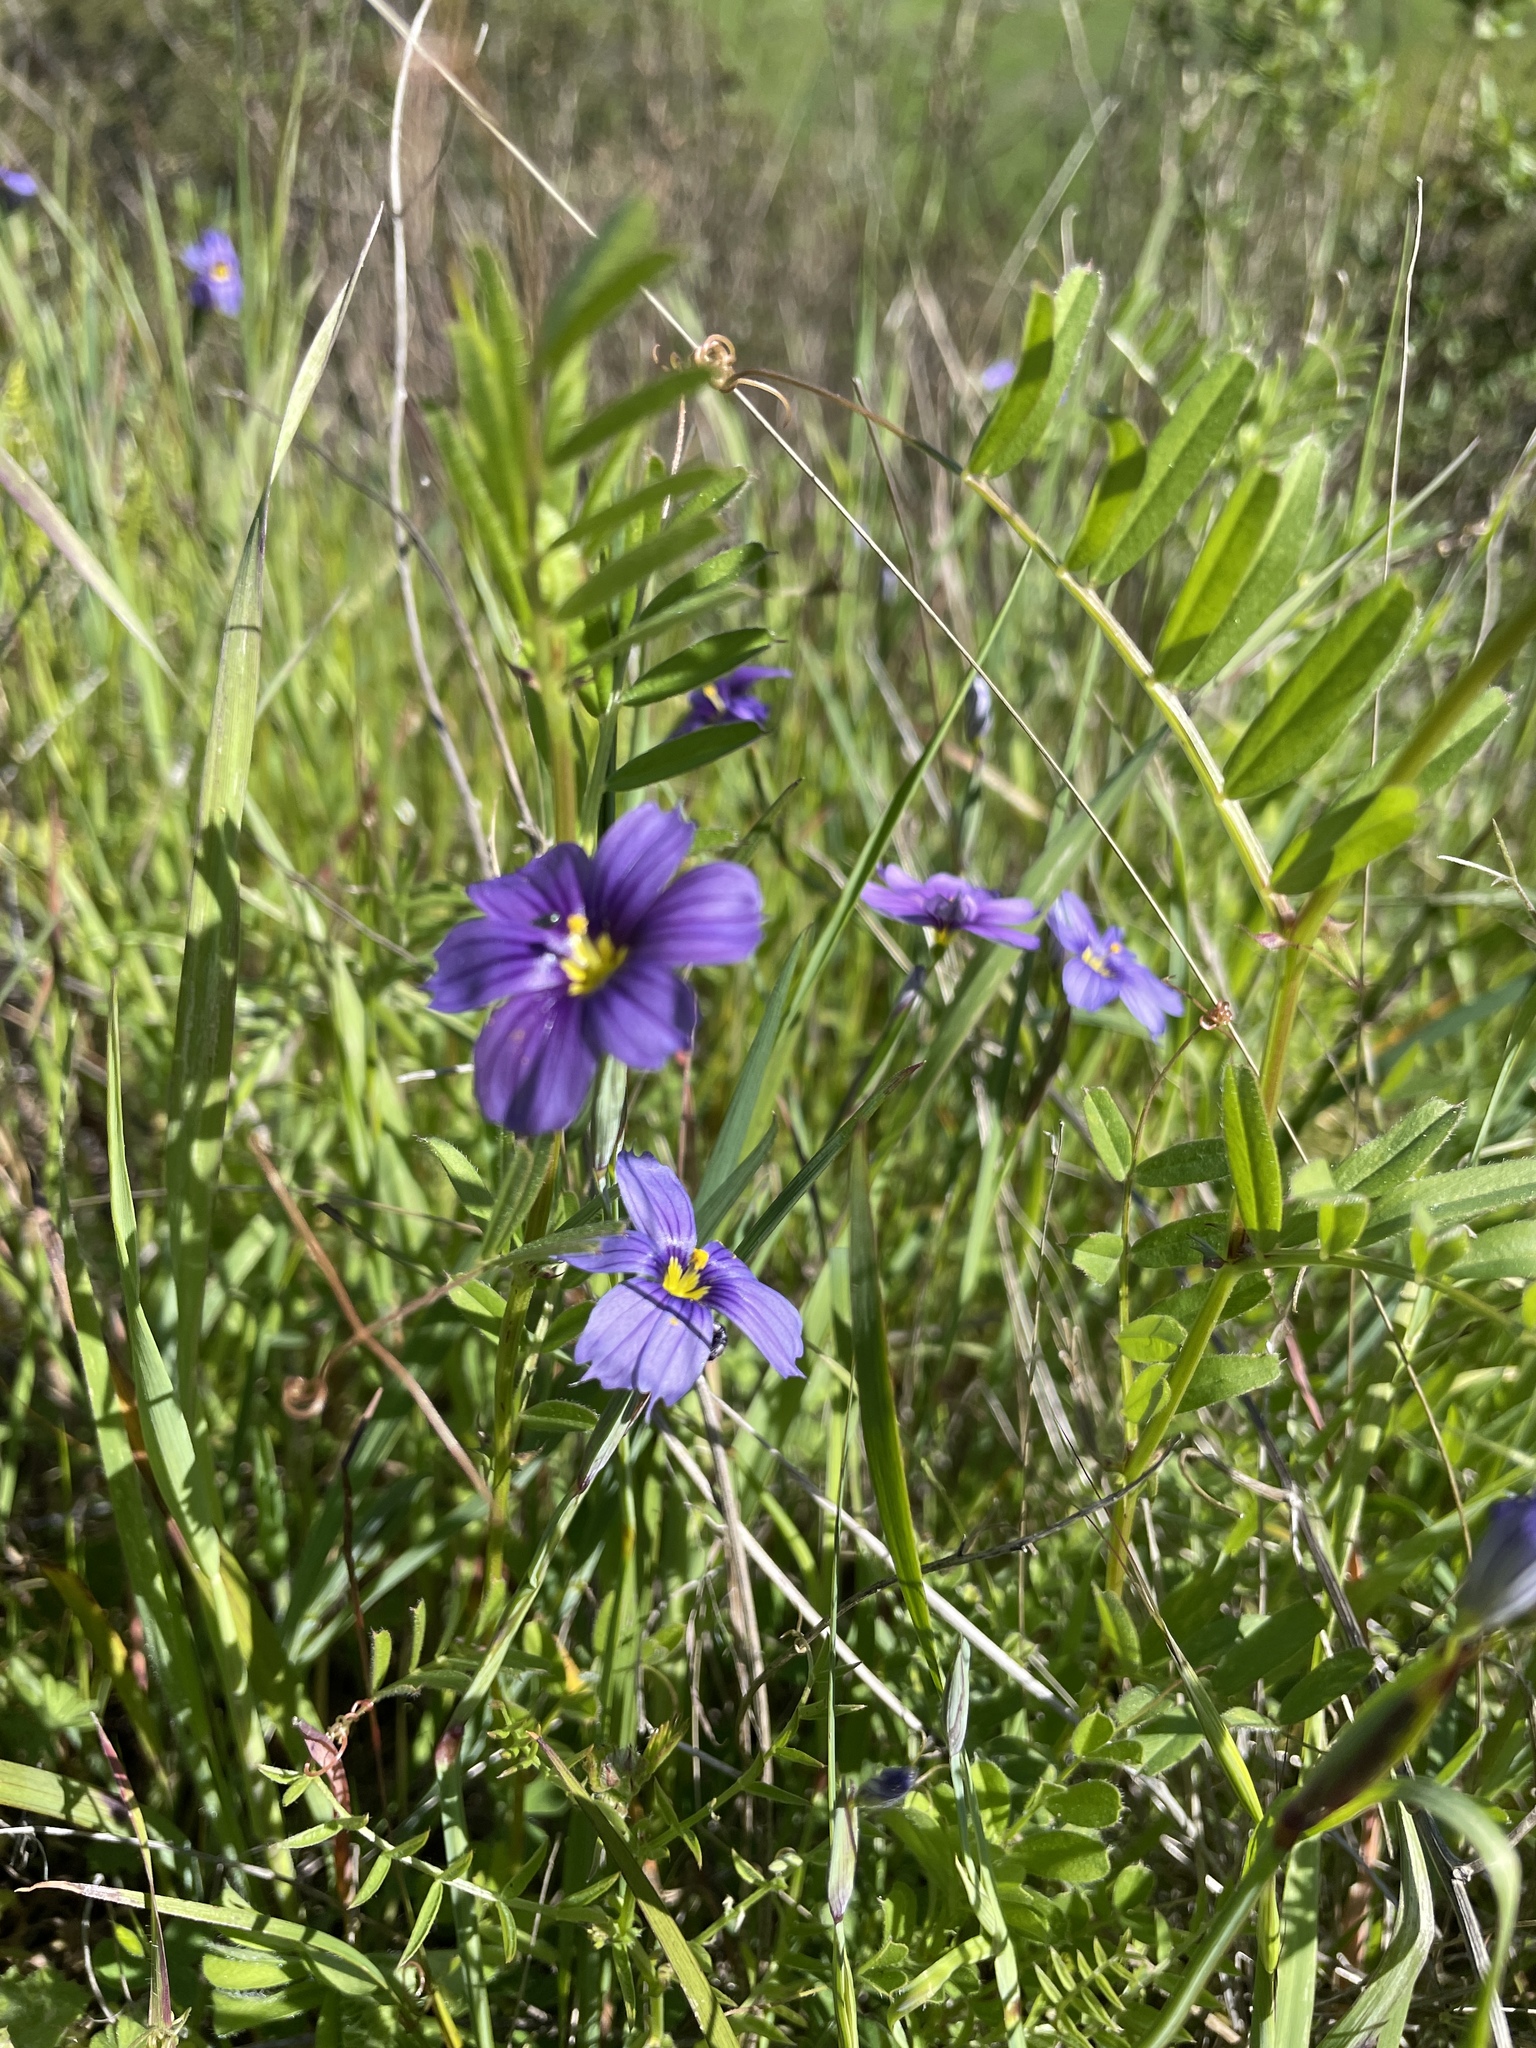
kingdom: Plantae
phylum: Tracheophyta
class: Liliopsida
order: Asparagales
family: Iridaceae
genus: Sisyrinchium
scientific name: Sisyrinchium bellum
